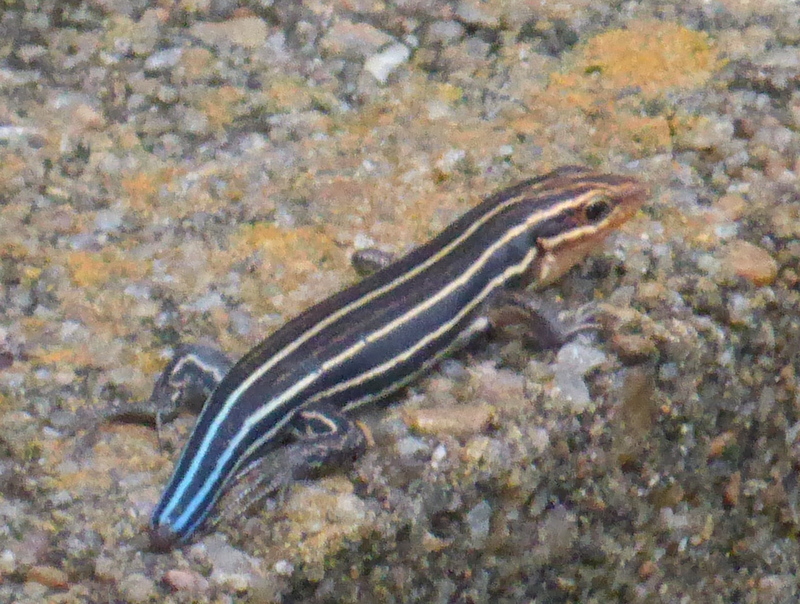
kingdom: Animalia
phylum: Chordata
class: Squamata
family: Scincidae
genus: Plestiodon
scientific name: Plestiodon laticeps
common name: Broadhead skink
